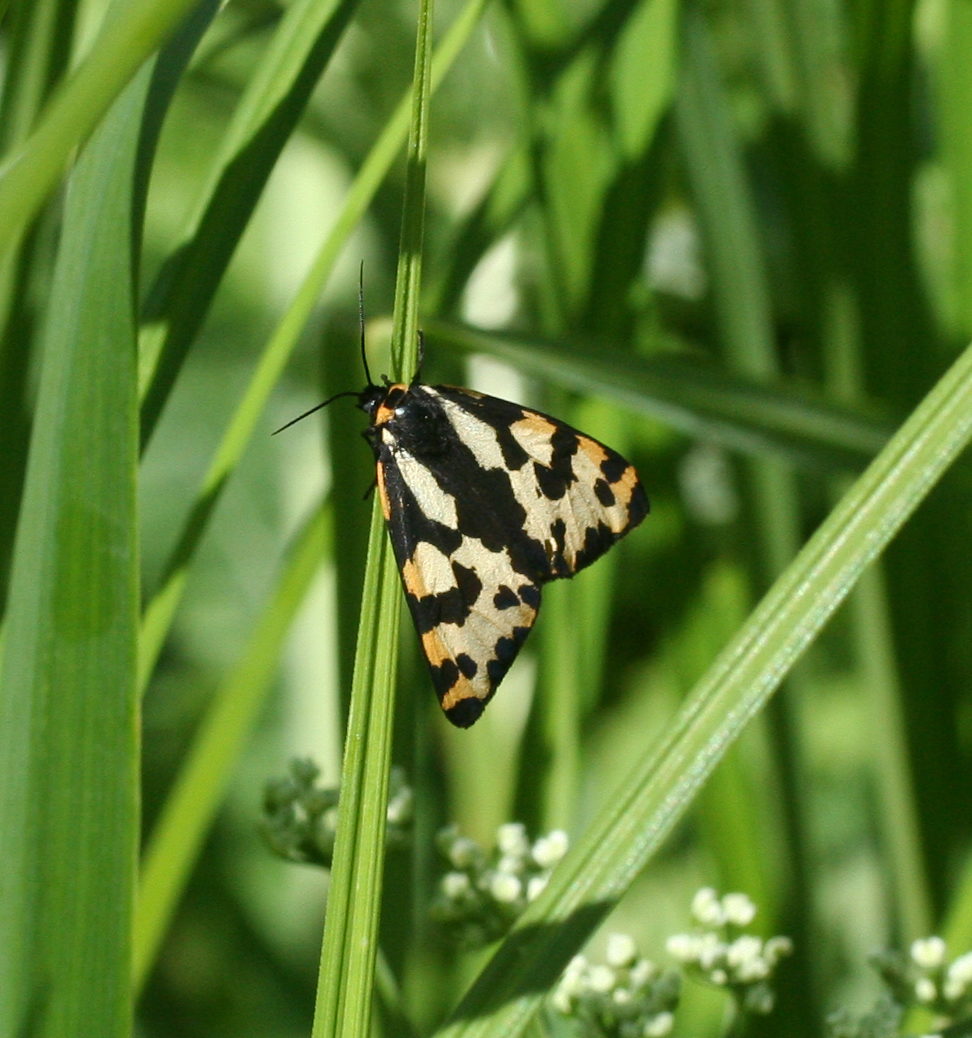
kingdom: Animalia
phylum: Arthropoda
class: Insecta
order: Lepidoptera
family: Erebidae
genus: Parasemia
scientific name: Parasemia plantaginis
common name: Wood tiger
